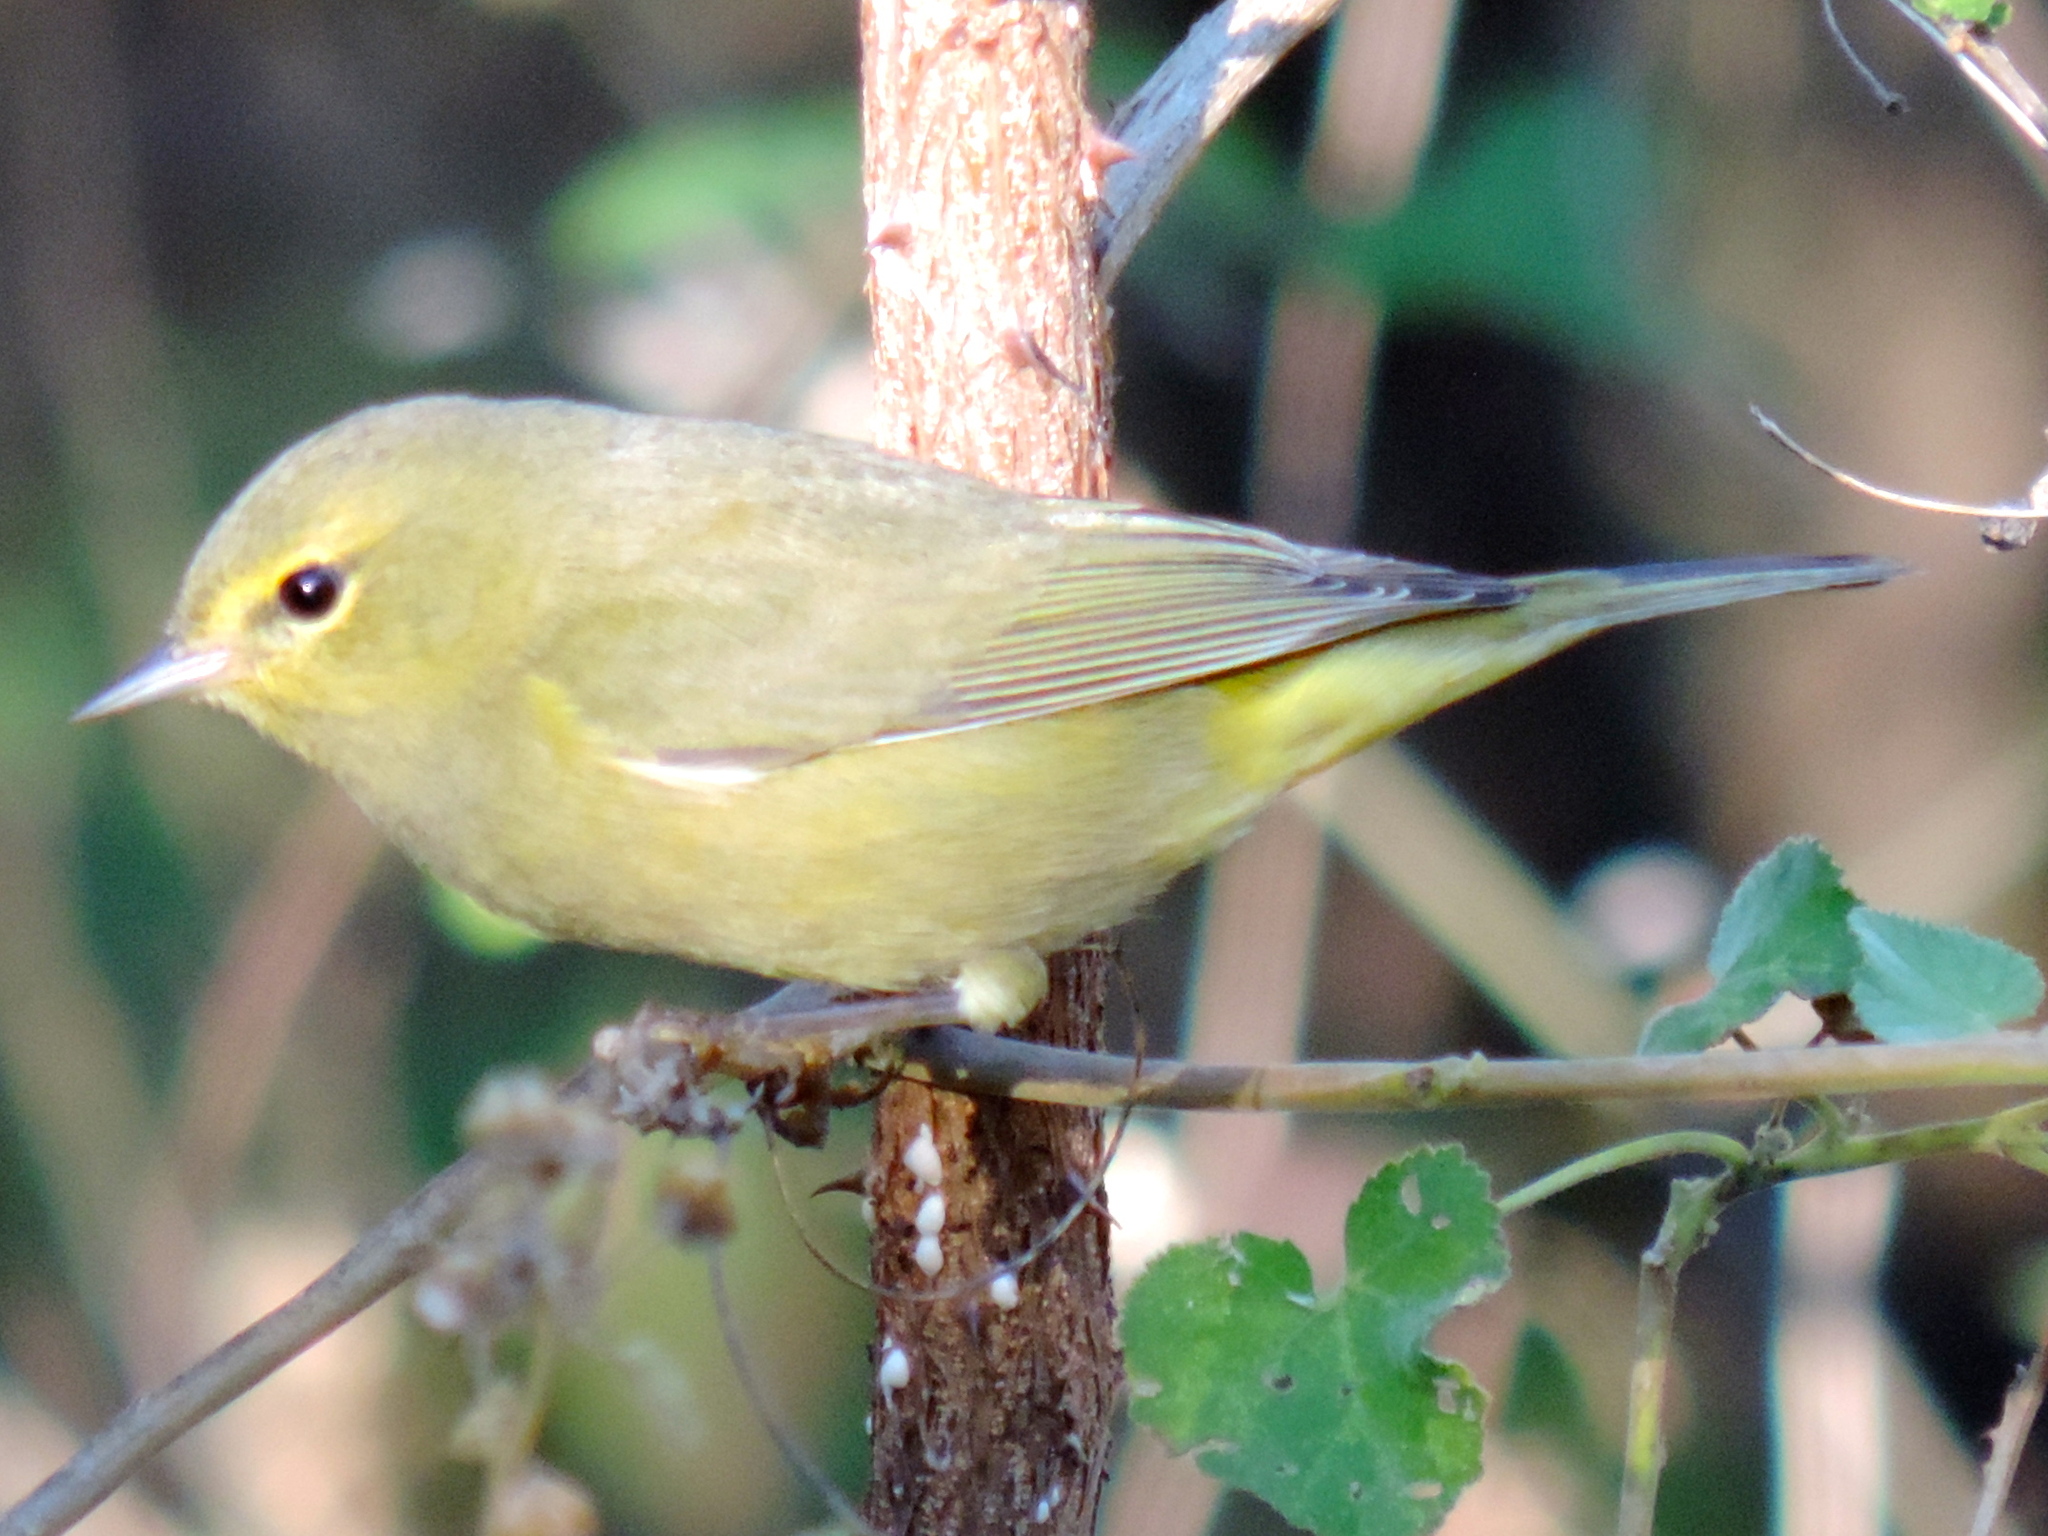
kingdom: Animalia
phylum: Chordata
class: Aves
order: Passeriformes
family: Parulidae
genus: Leiothlypis
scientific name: Leiothlypis celata
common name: Orange-crowned warbler
